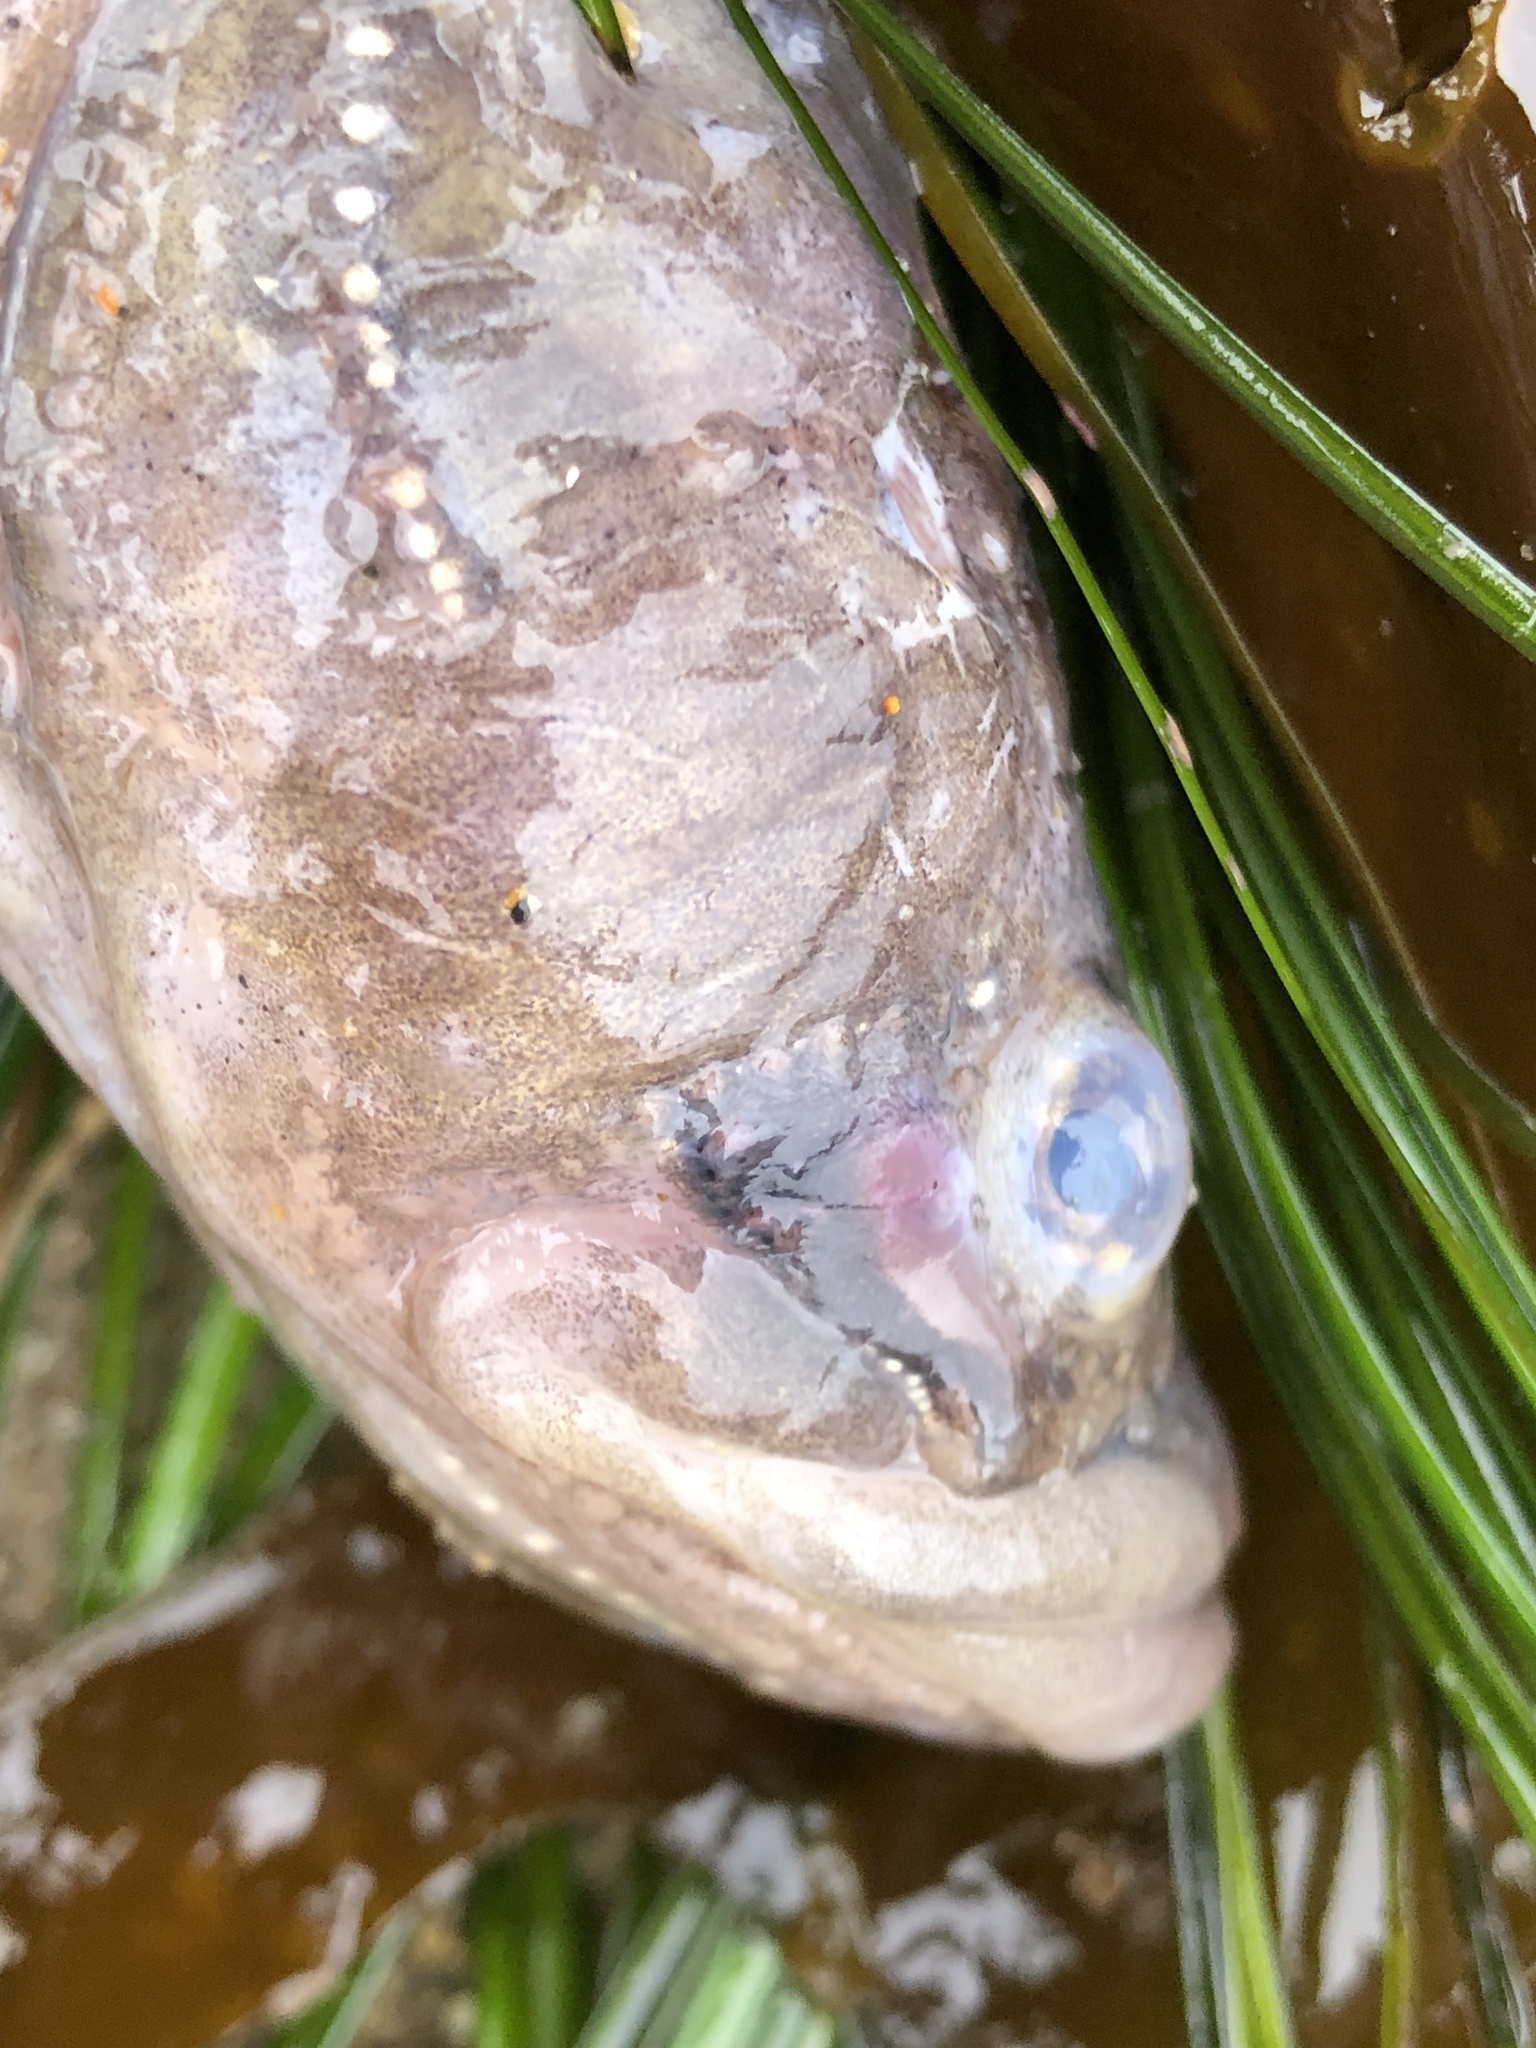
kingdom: Animalia
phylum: Chordata
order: Batrachoidiformes
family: Batrachoididae
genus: Porichthys
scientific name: Porichthys notatus
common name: Plainfin midshipman
